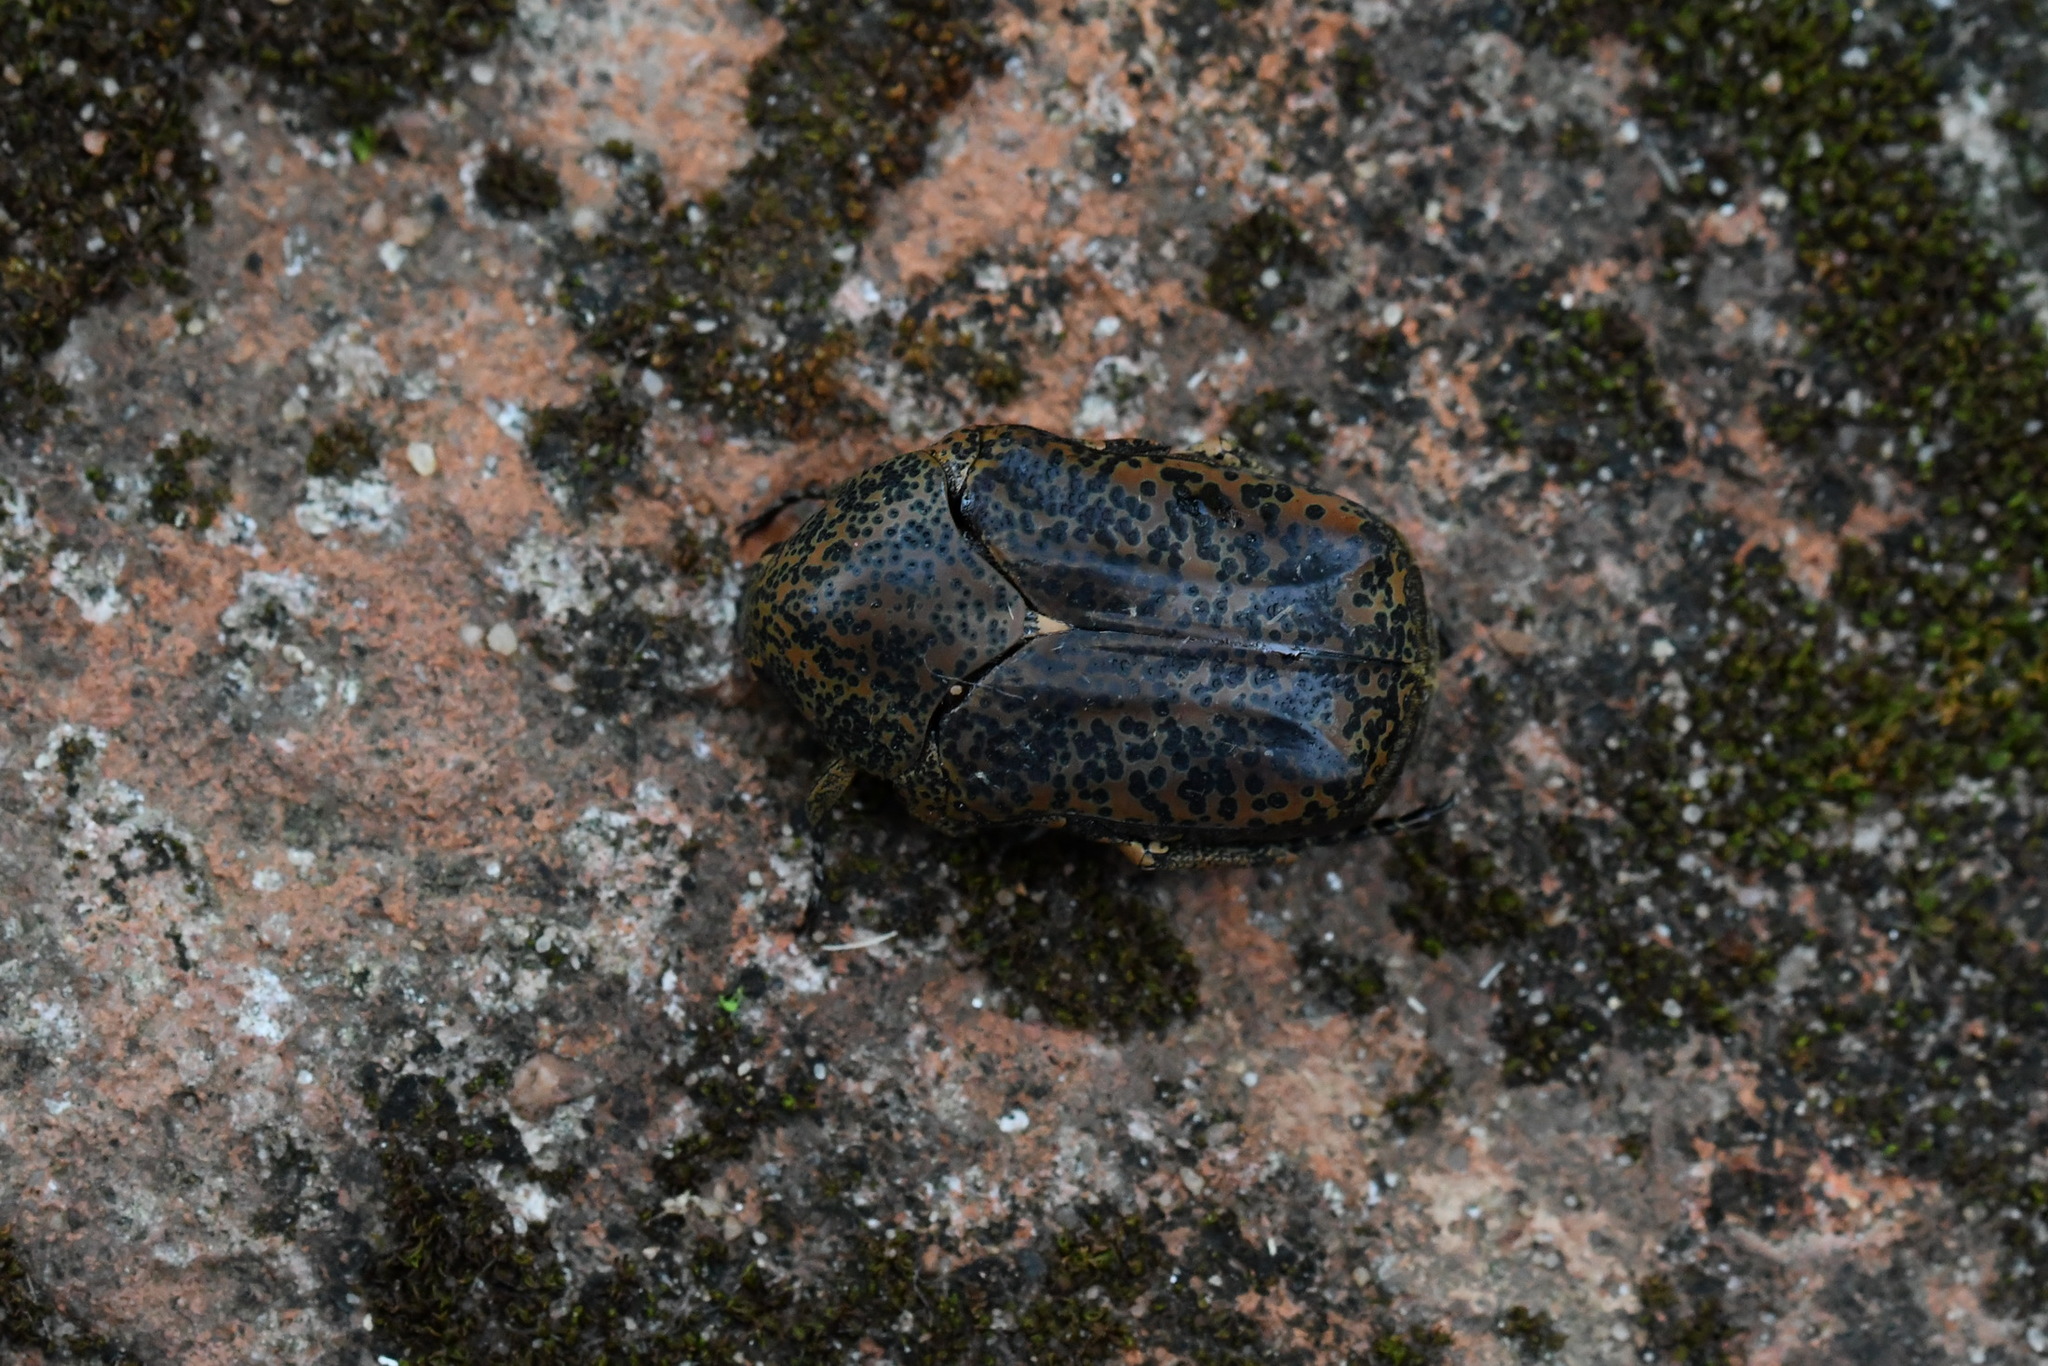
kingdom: Animalia
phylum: Arthropoda
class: Insecta
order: Coleoptera
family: Scarabaeidae
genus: Marmarina
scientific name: Marmarina insculpta
